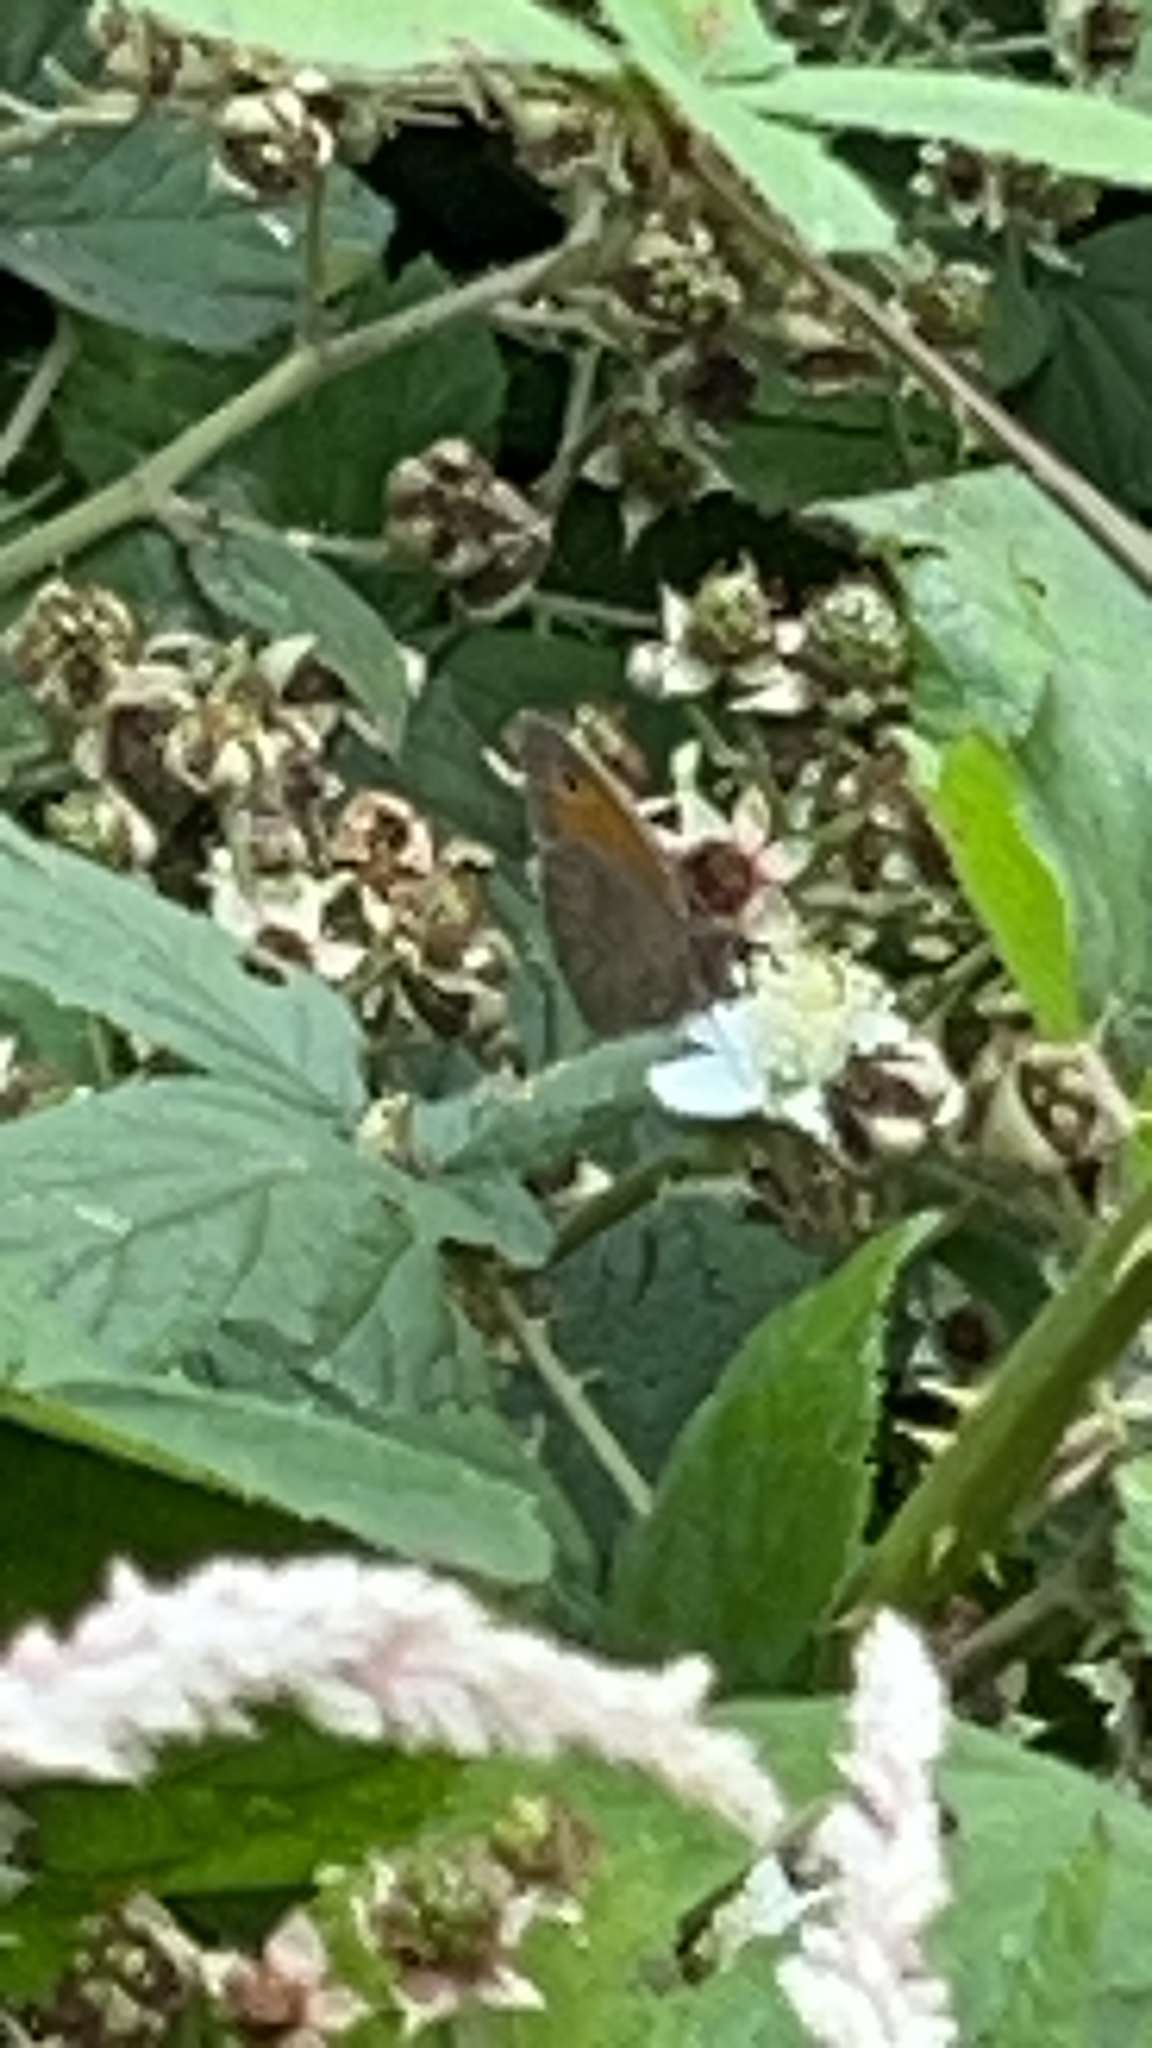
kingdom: Animalia
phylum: Arthropoda
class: Insecta
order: Lepidoptera
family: Nymphalidae
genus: Maniola
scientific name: Maniola jurtina
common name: Meadow brown
